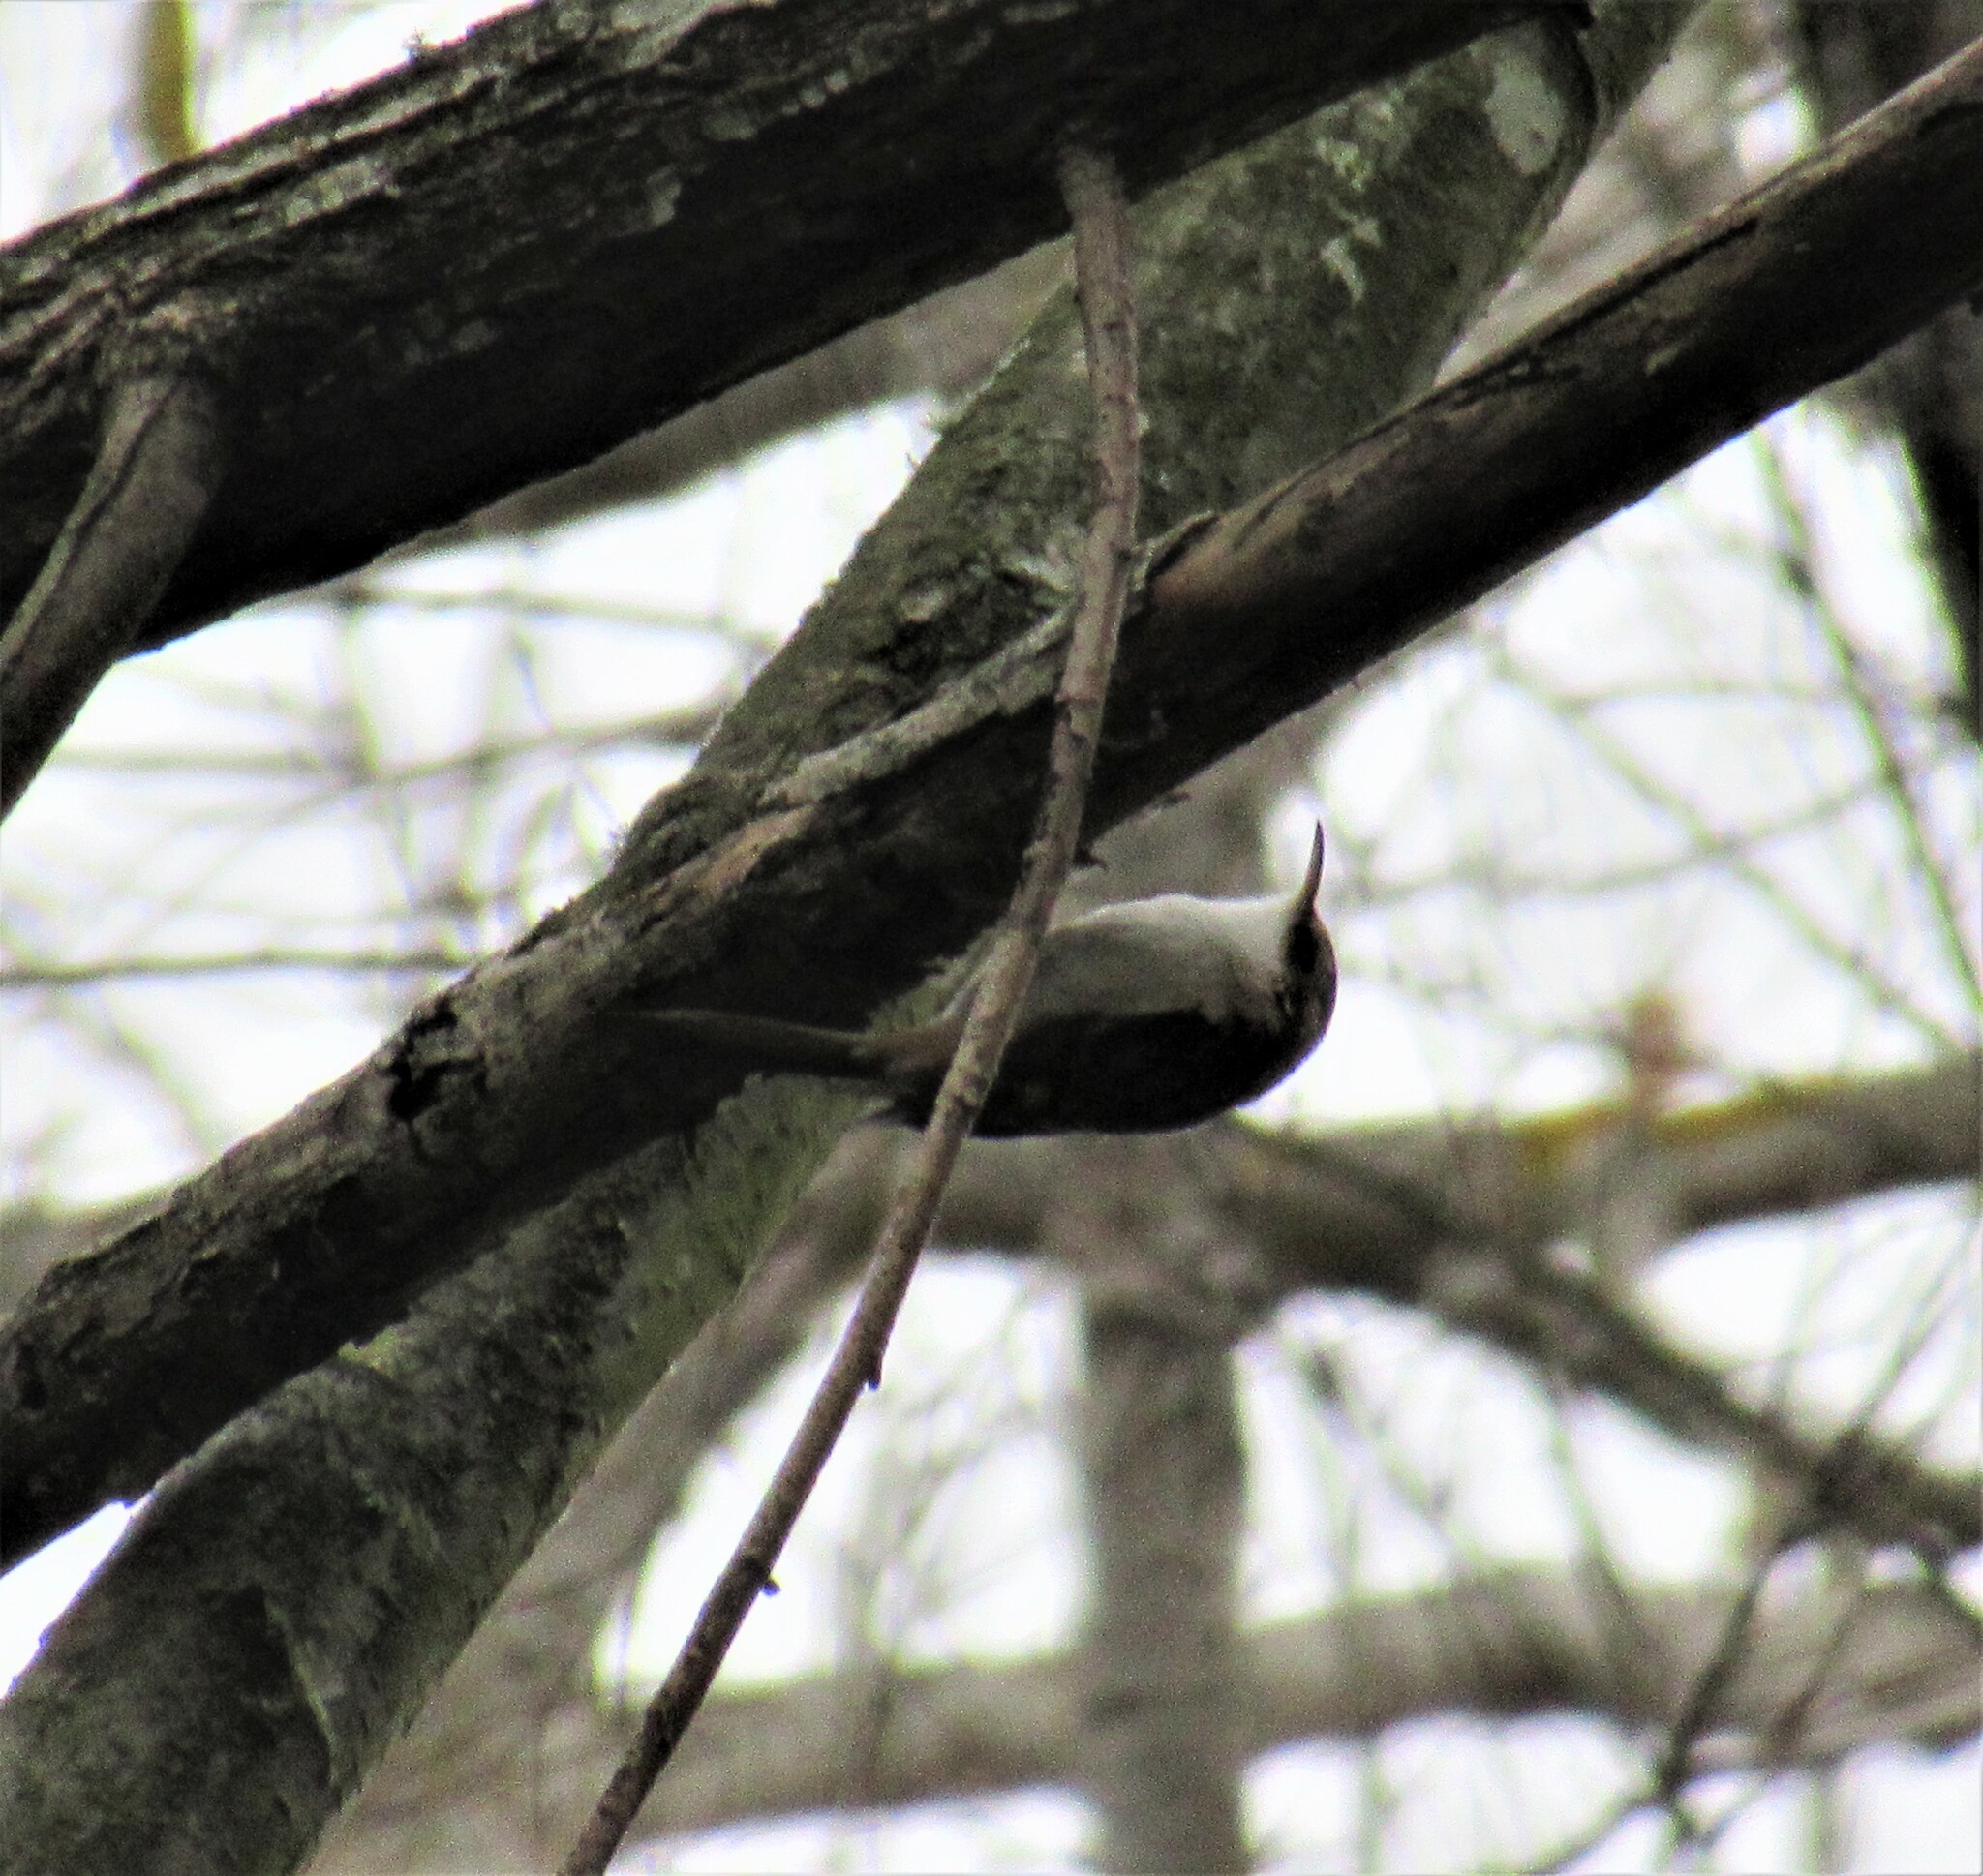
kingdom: Animalia
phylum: Chordata
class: Aves
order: Passeriformes
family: Certhiidae
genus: Certhia
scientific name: Certhia americana
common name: Brown creeper
